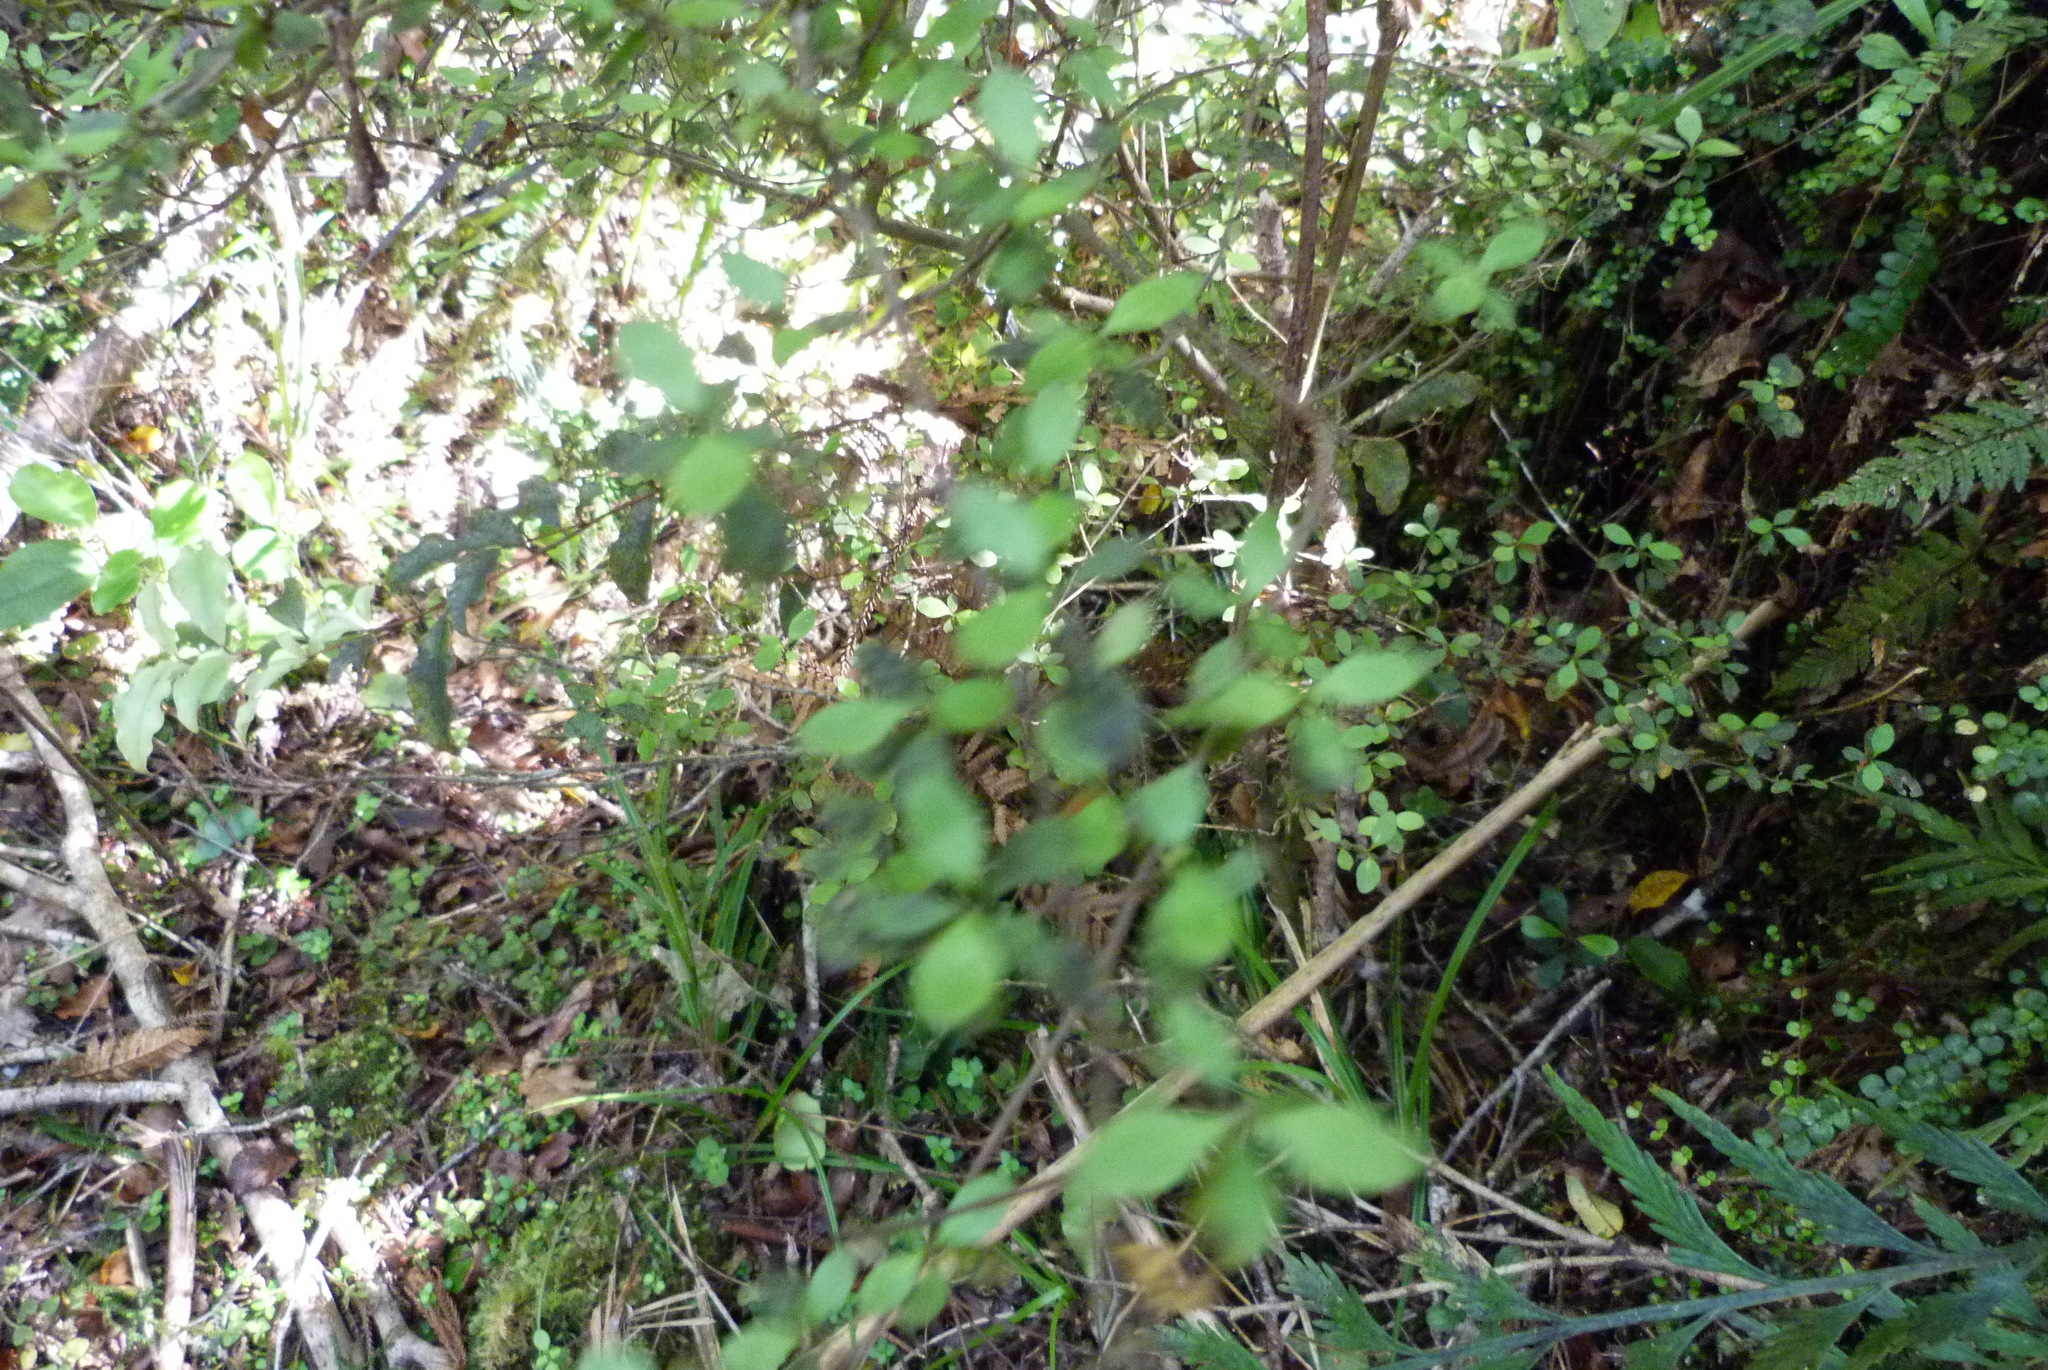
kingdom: Plantae
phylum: Tracheophyta
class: Magnoliopsida
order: Gentianales
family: Rubiaceae
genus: Coprosma
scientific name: Coprosma rhamnoides
